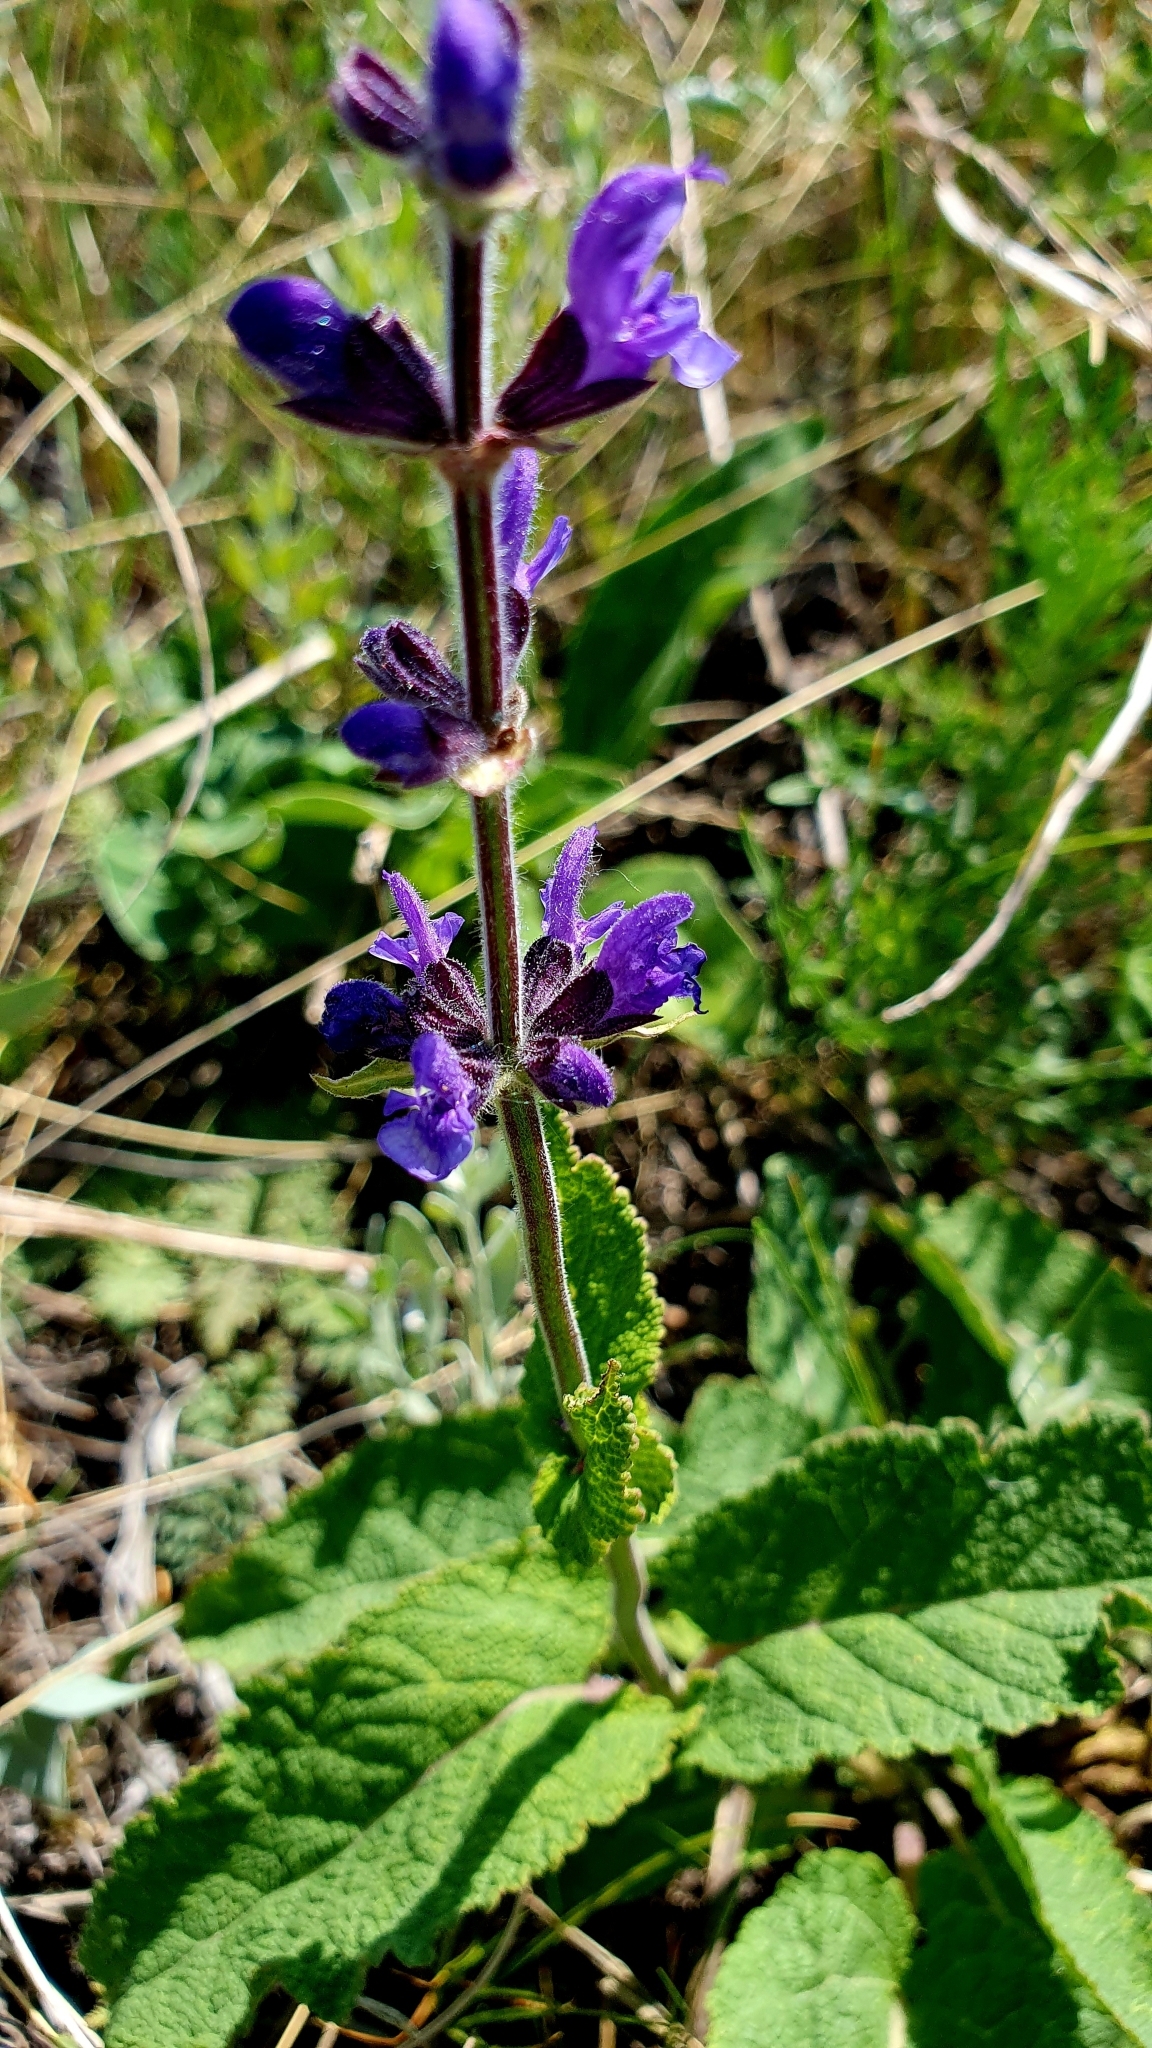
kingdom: Plantae
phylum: Tracheophyta
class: Magnoliopsida
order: Lamiales
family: Lamiaceae
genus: Salvia
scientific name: Salvia dumetorum
